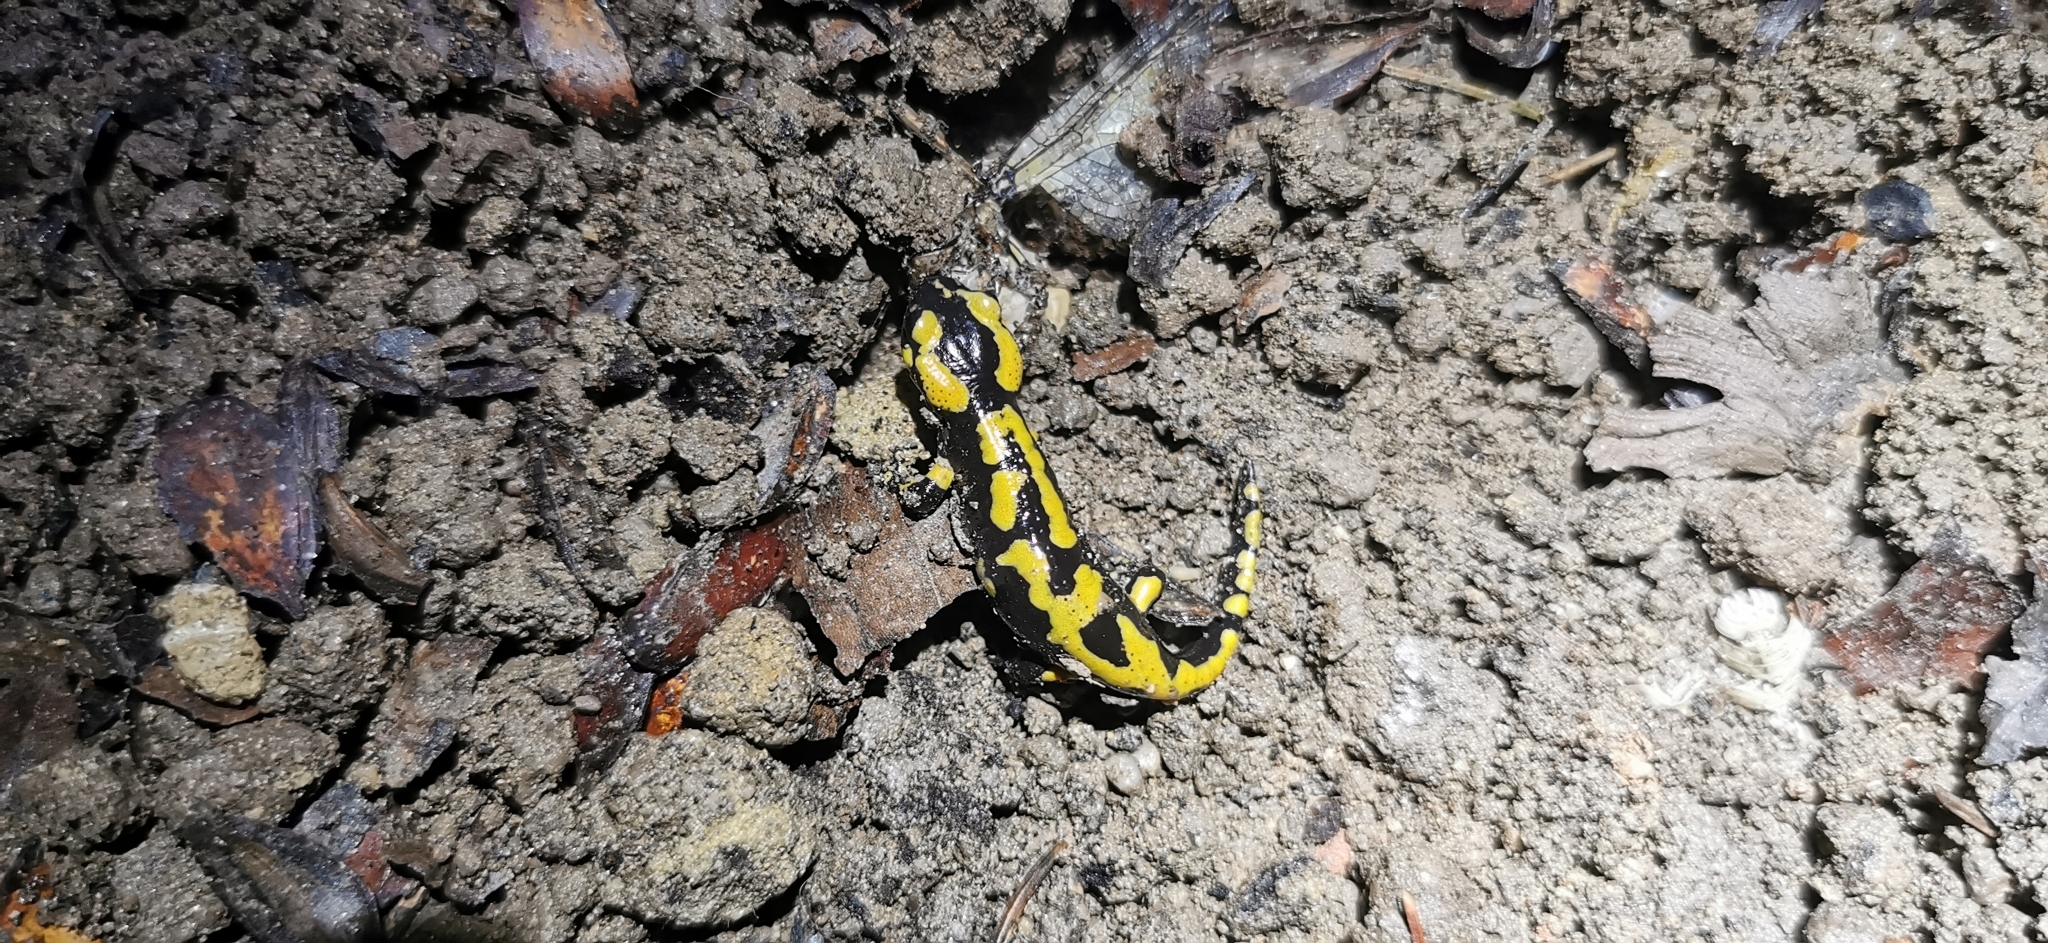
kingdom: Animalia
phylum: Chordata
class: Amphibia
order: Caudata
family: Salamandridae
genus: Salamandra
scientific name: Salamandra salamandra
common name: Fire salamander
